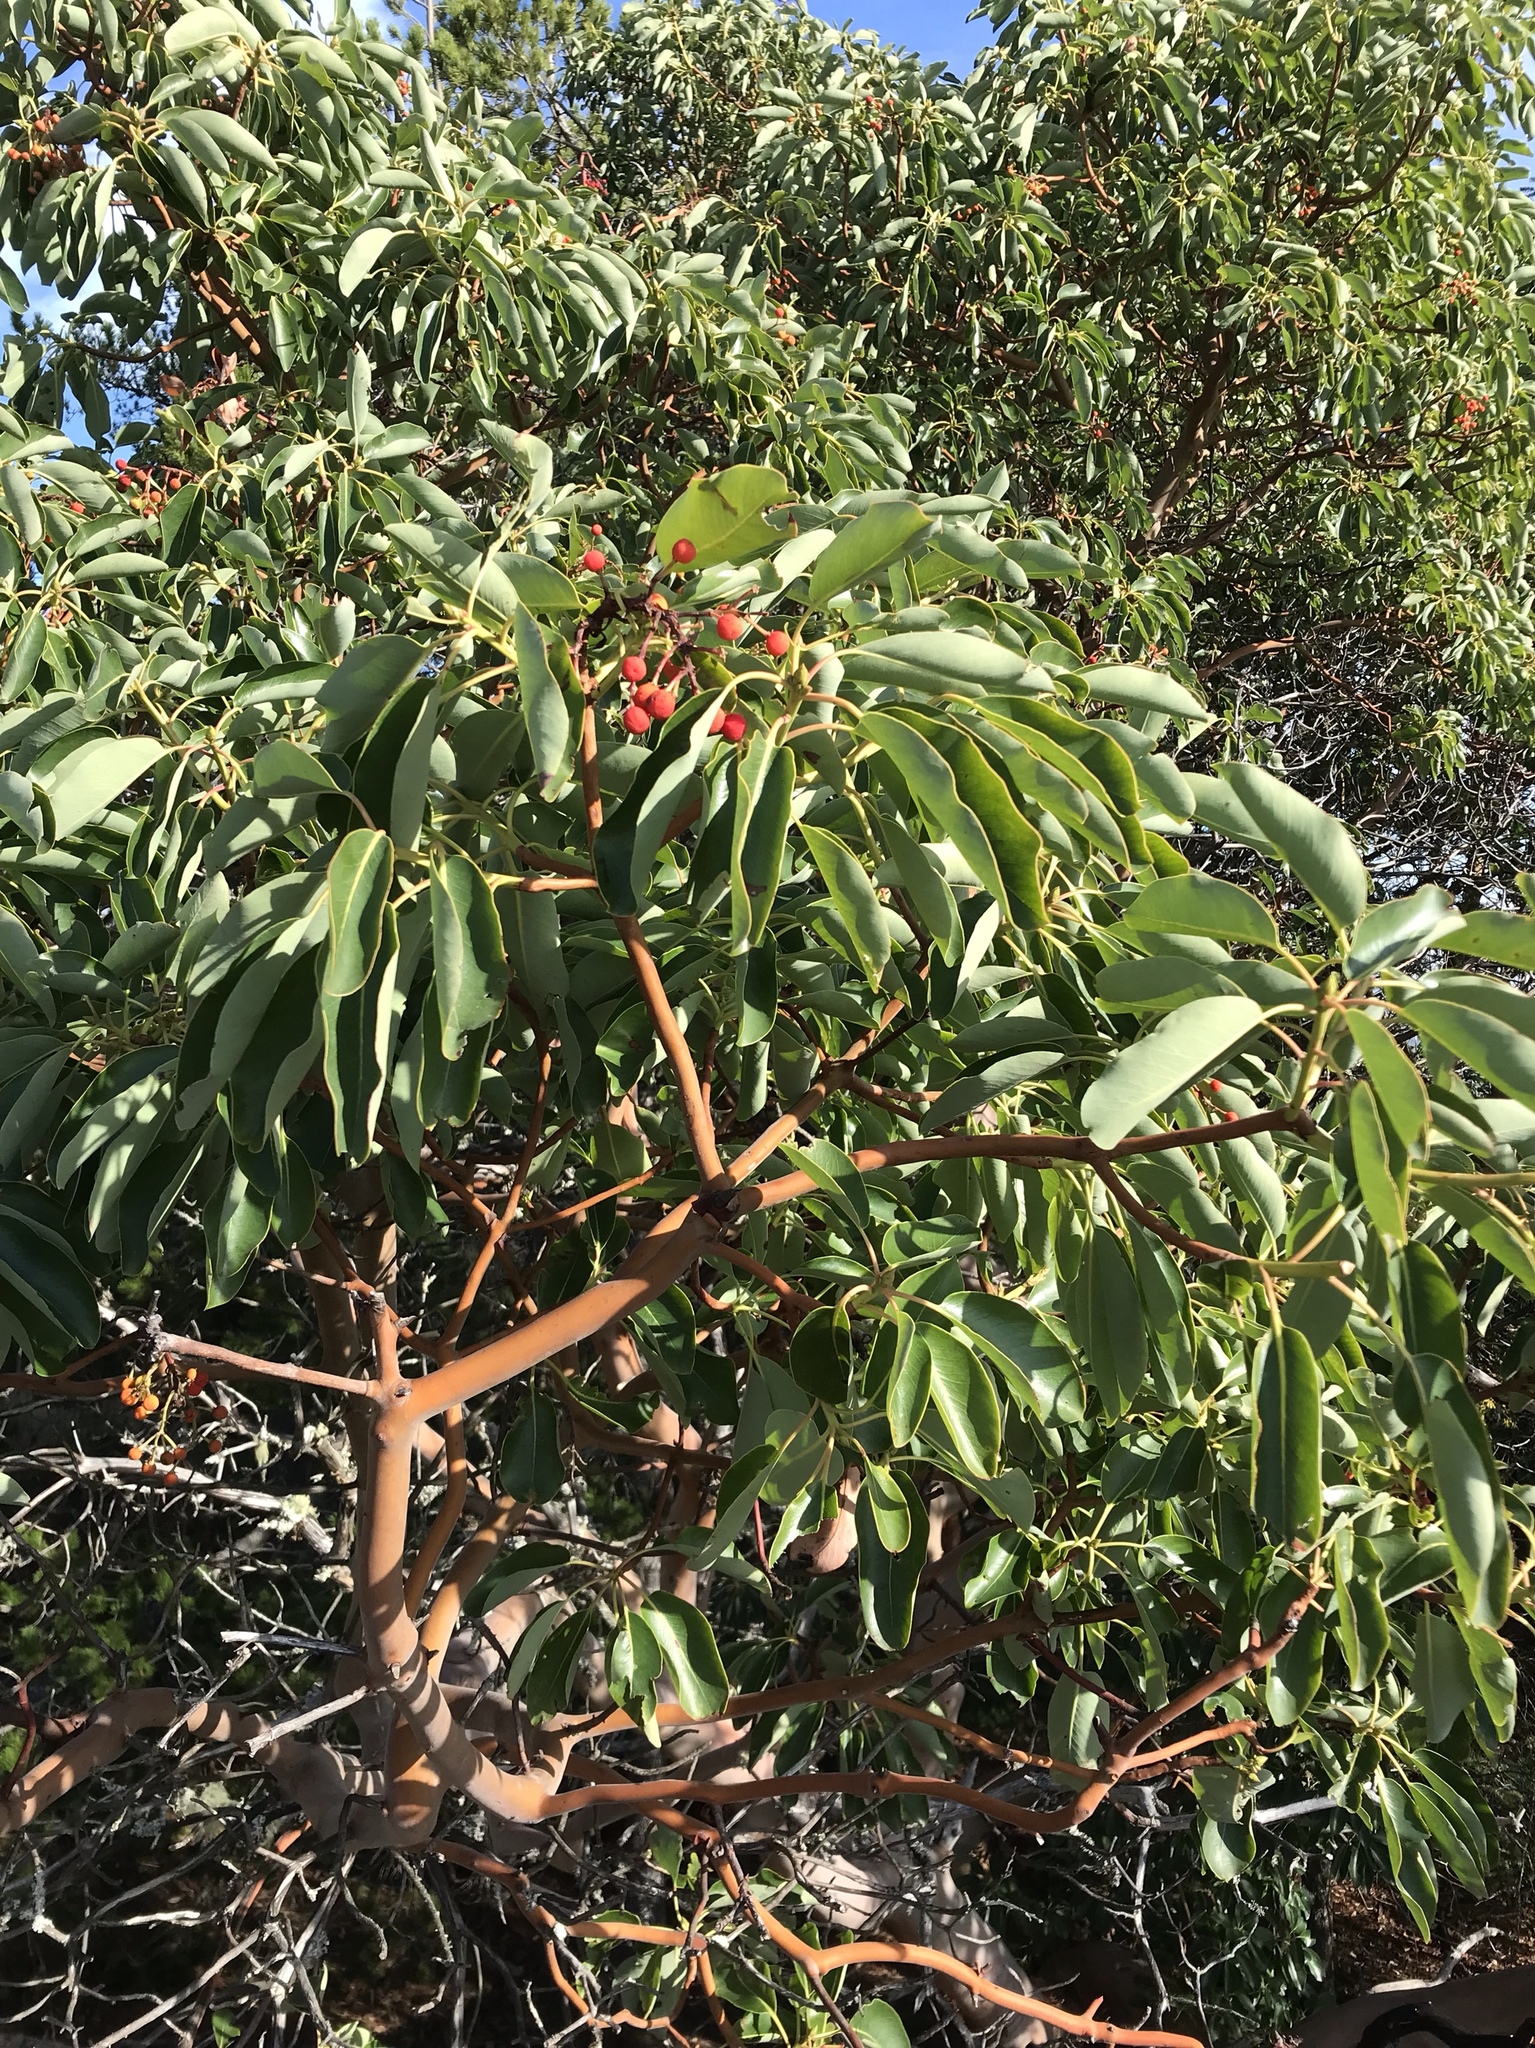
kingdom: Plantae
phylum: Tracheophyta
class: Magnoliopsida
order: Ericales
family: Ericaceae
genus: Arbutus
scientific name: Arbutus menziesii
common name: Pacific madrone
